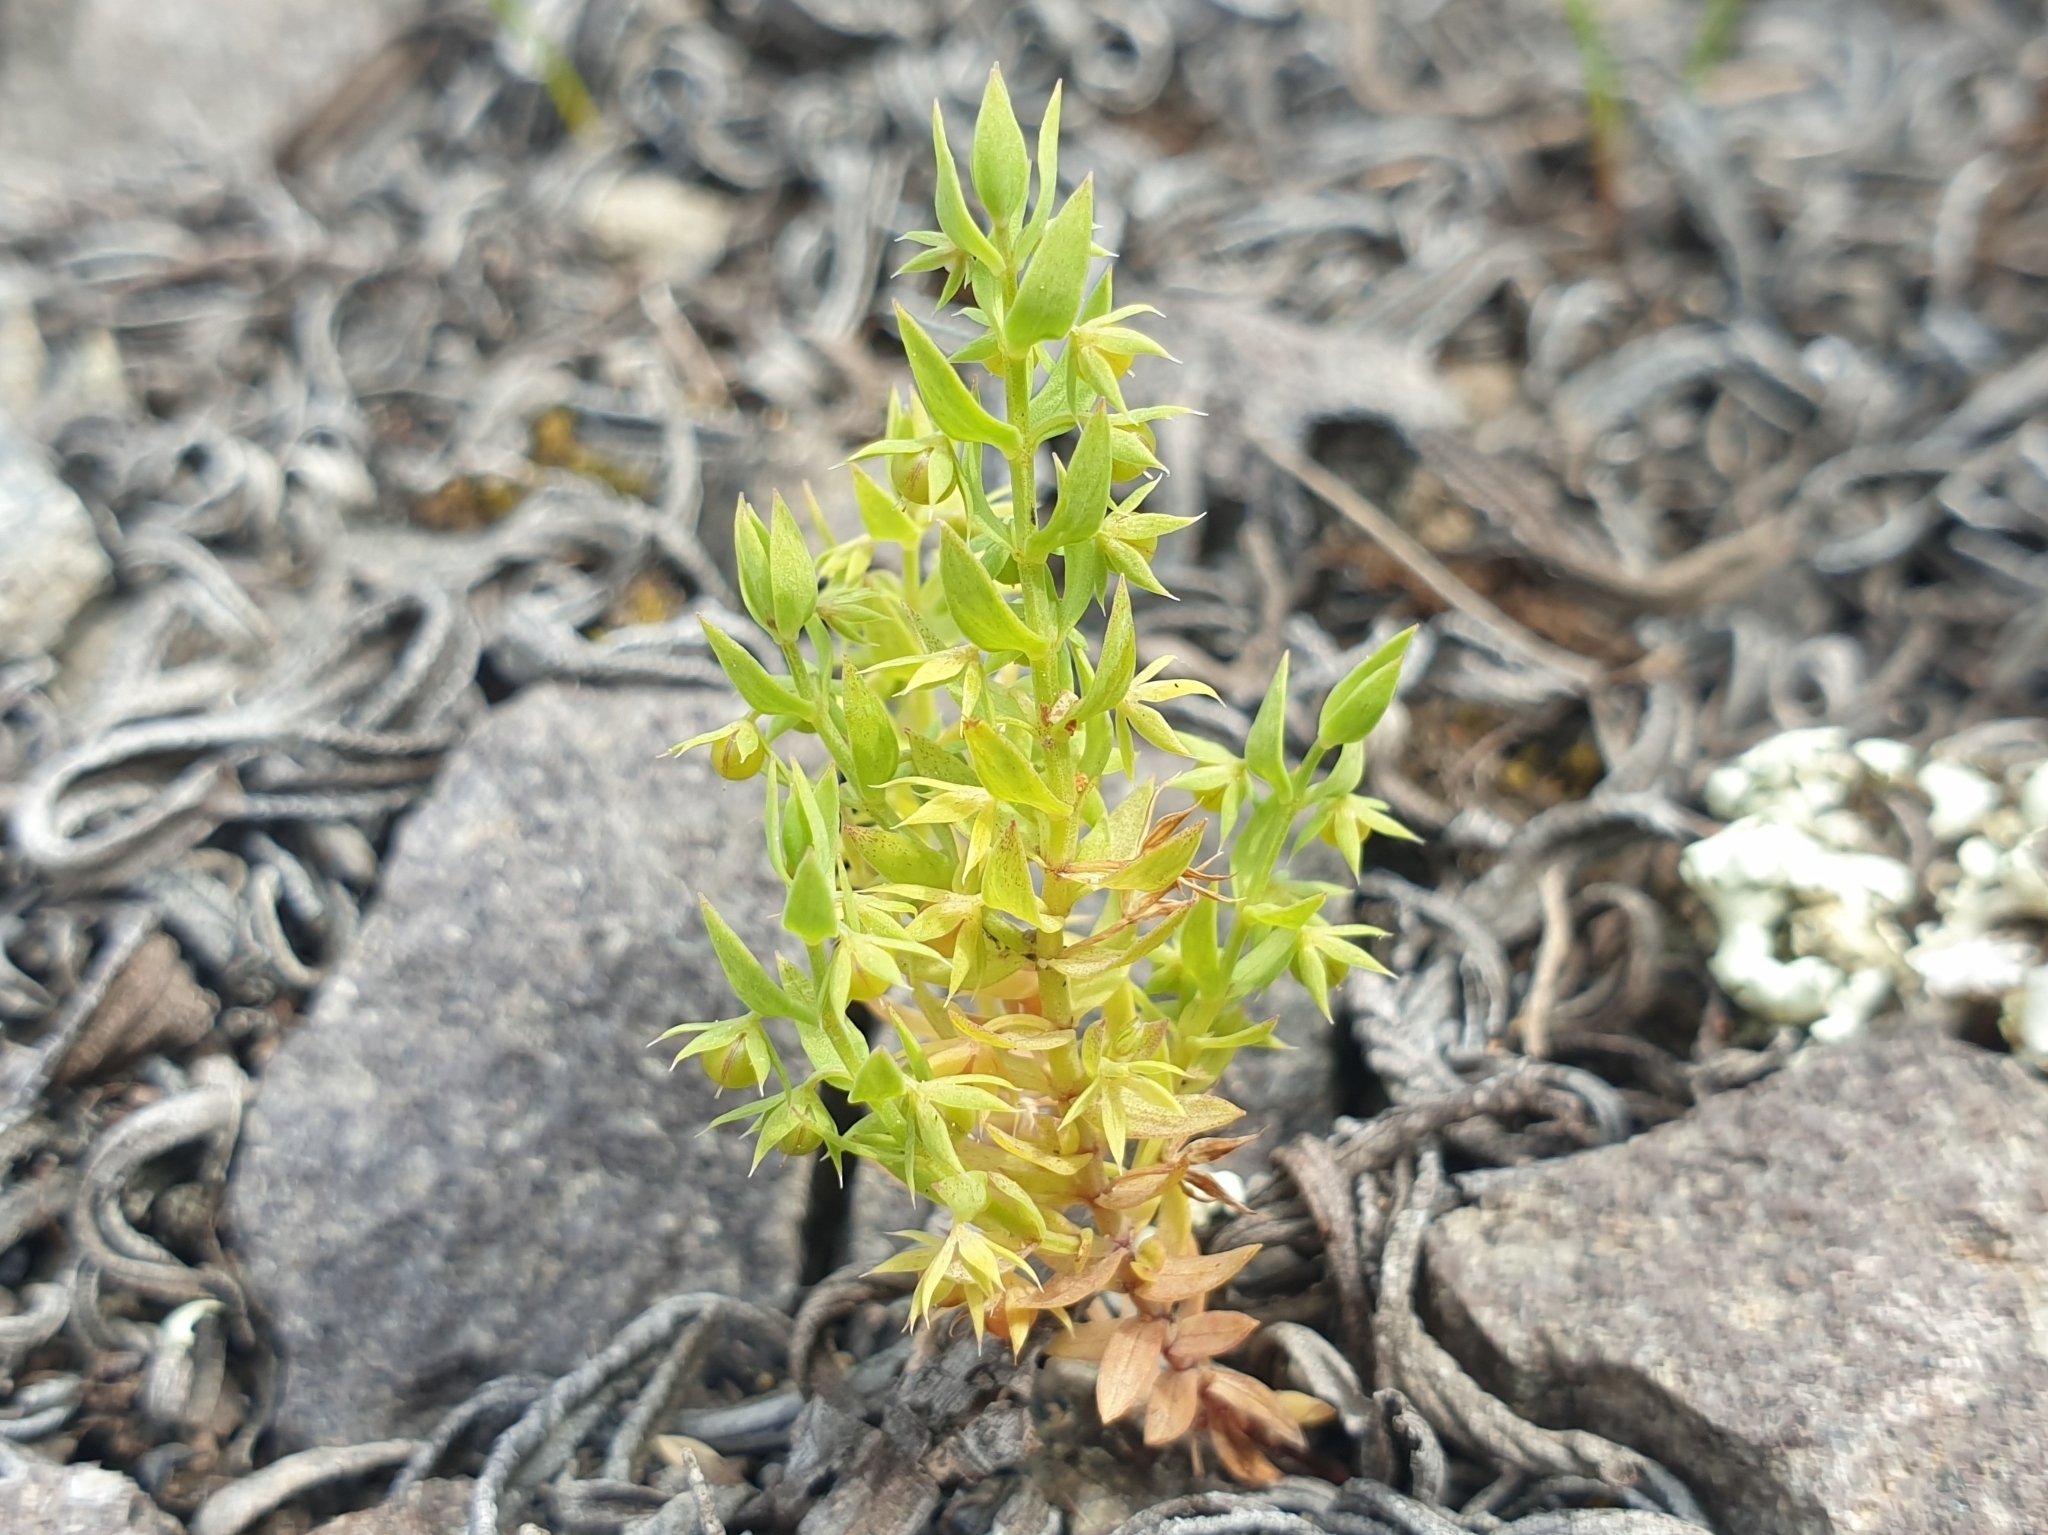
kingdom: Plantae
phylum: Tracheophyta
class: Magnoliopsida
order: Ericales
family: Primulaceae
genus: Lysimachia
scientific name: Lysimachia linum-stellatum
